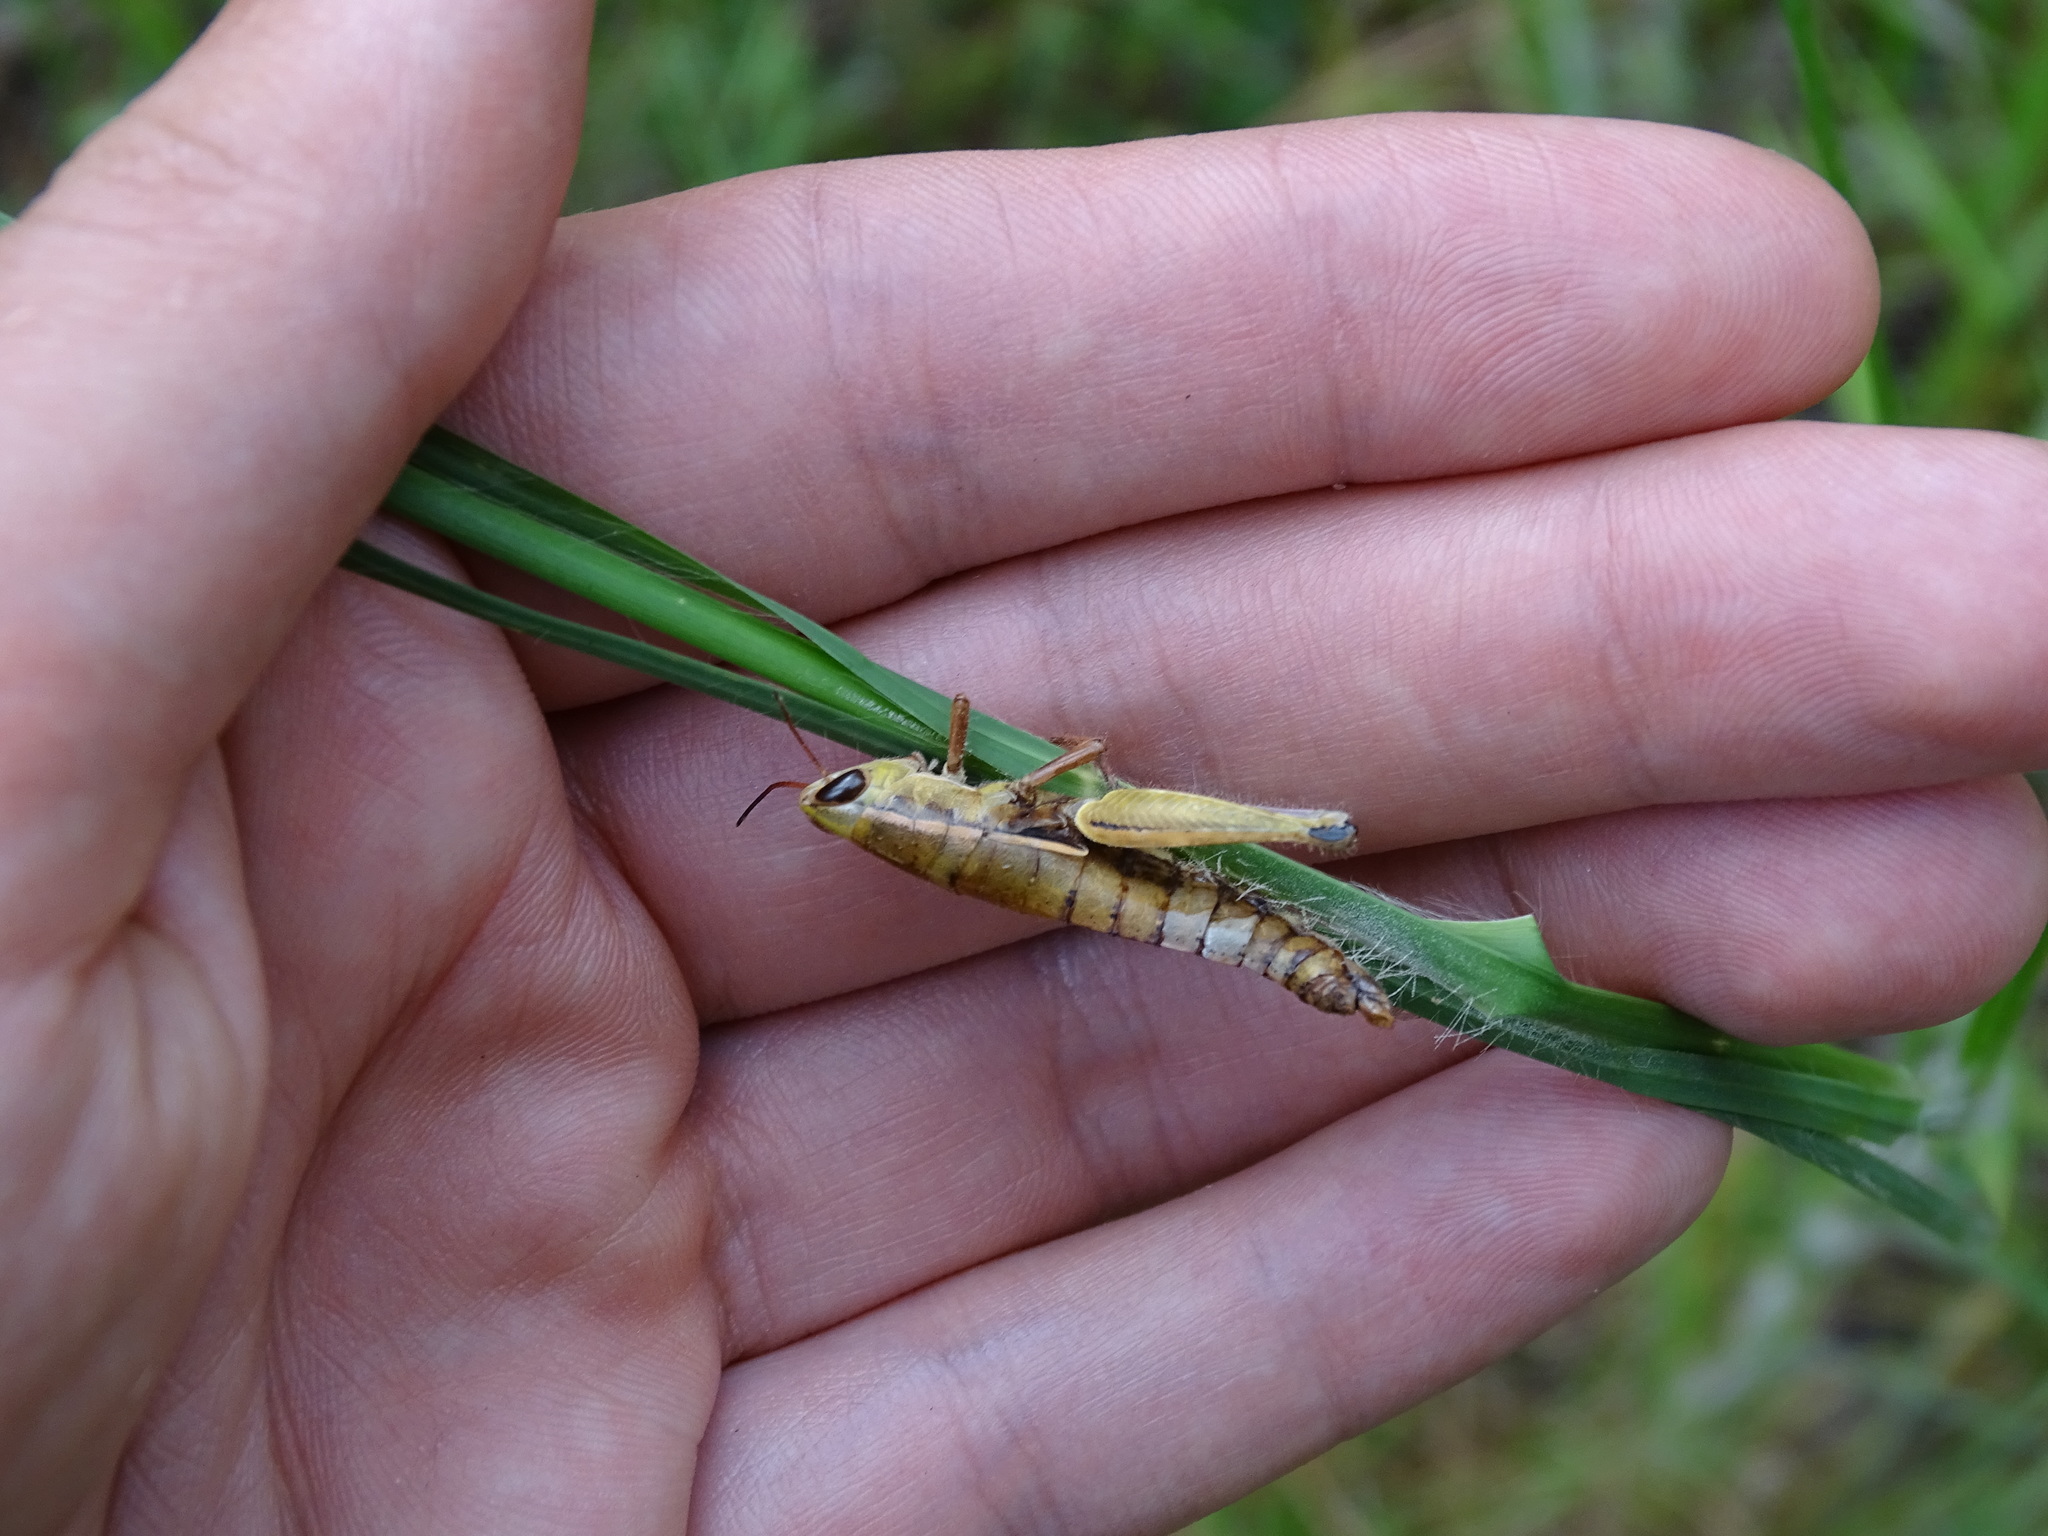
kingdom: Animalia
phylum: Arthropoda
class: Insecta
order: Orthoptera
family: Acrididae
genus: Aptenopedes
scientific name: Aptenopedes sphenarioides
